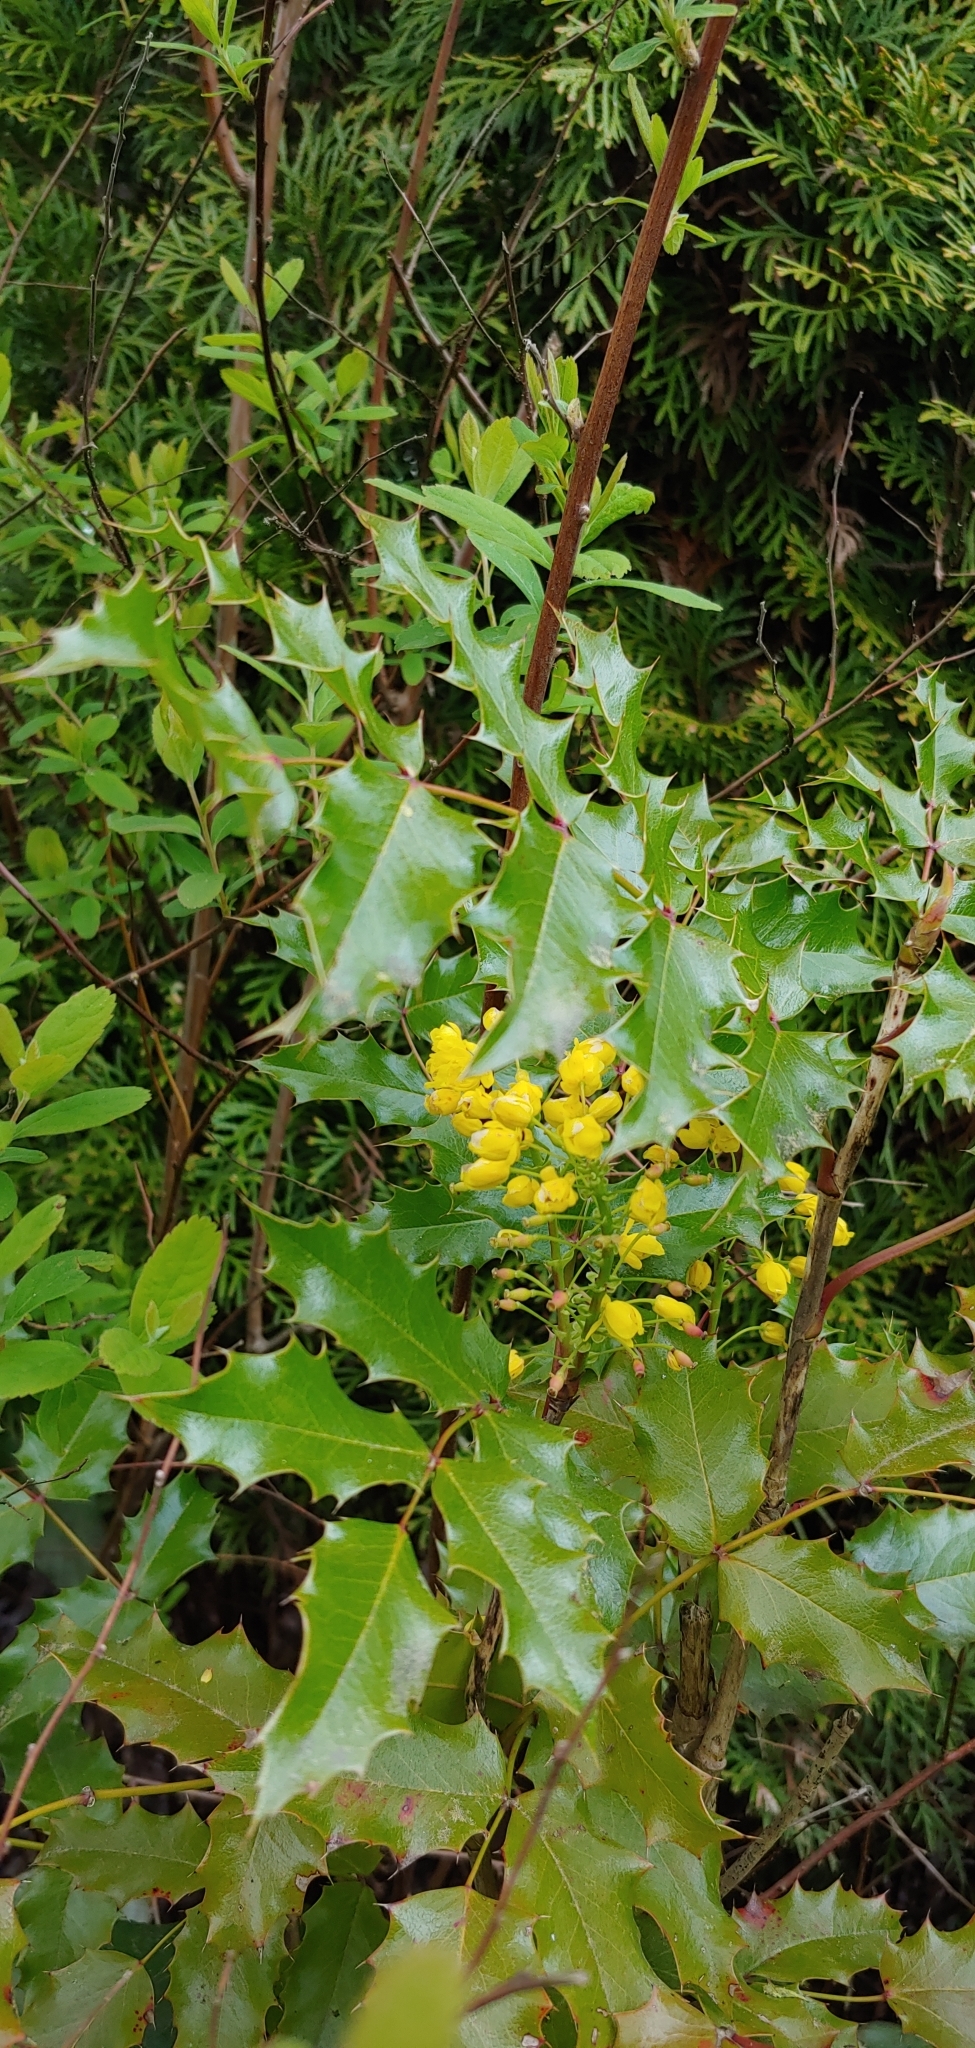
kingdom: Plantae
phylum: Tracheophyta
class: Magnoliopsida
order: Ranunculales
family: Berberidaceae
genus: Mahonia
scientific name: Mahonia aquifolium
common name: Oregon-grape
